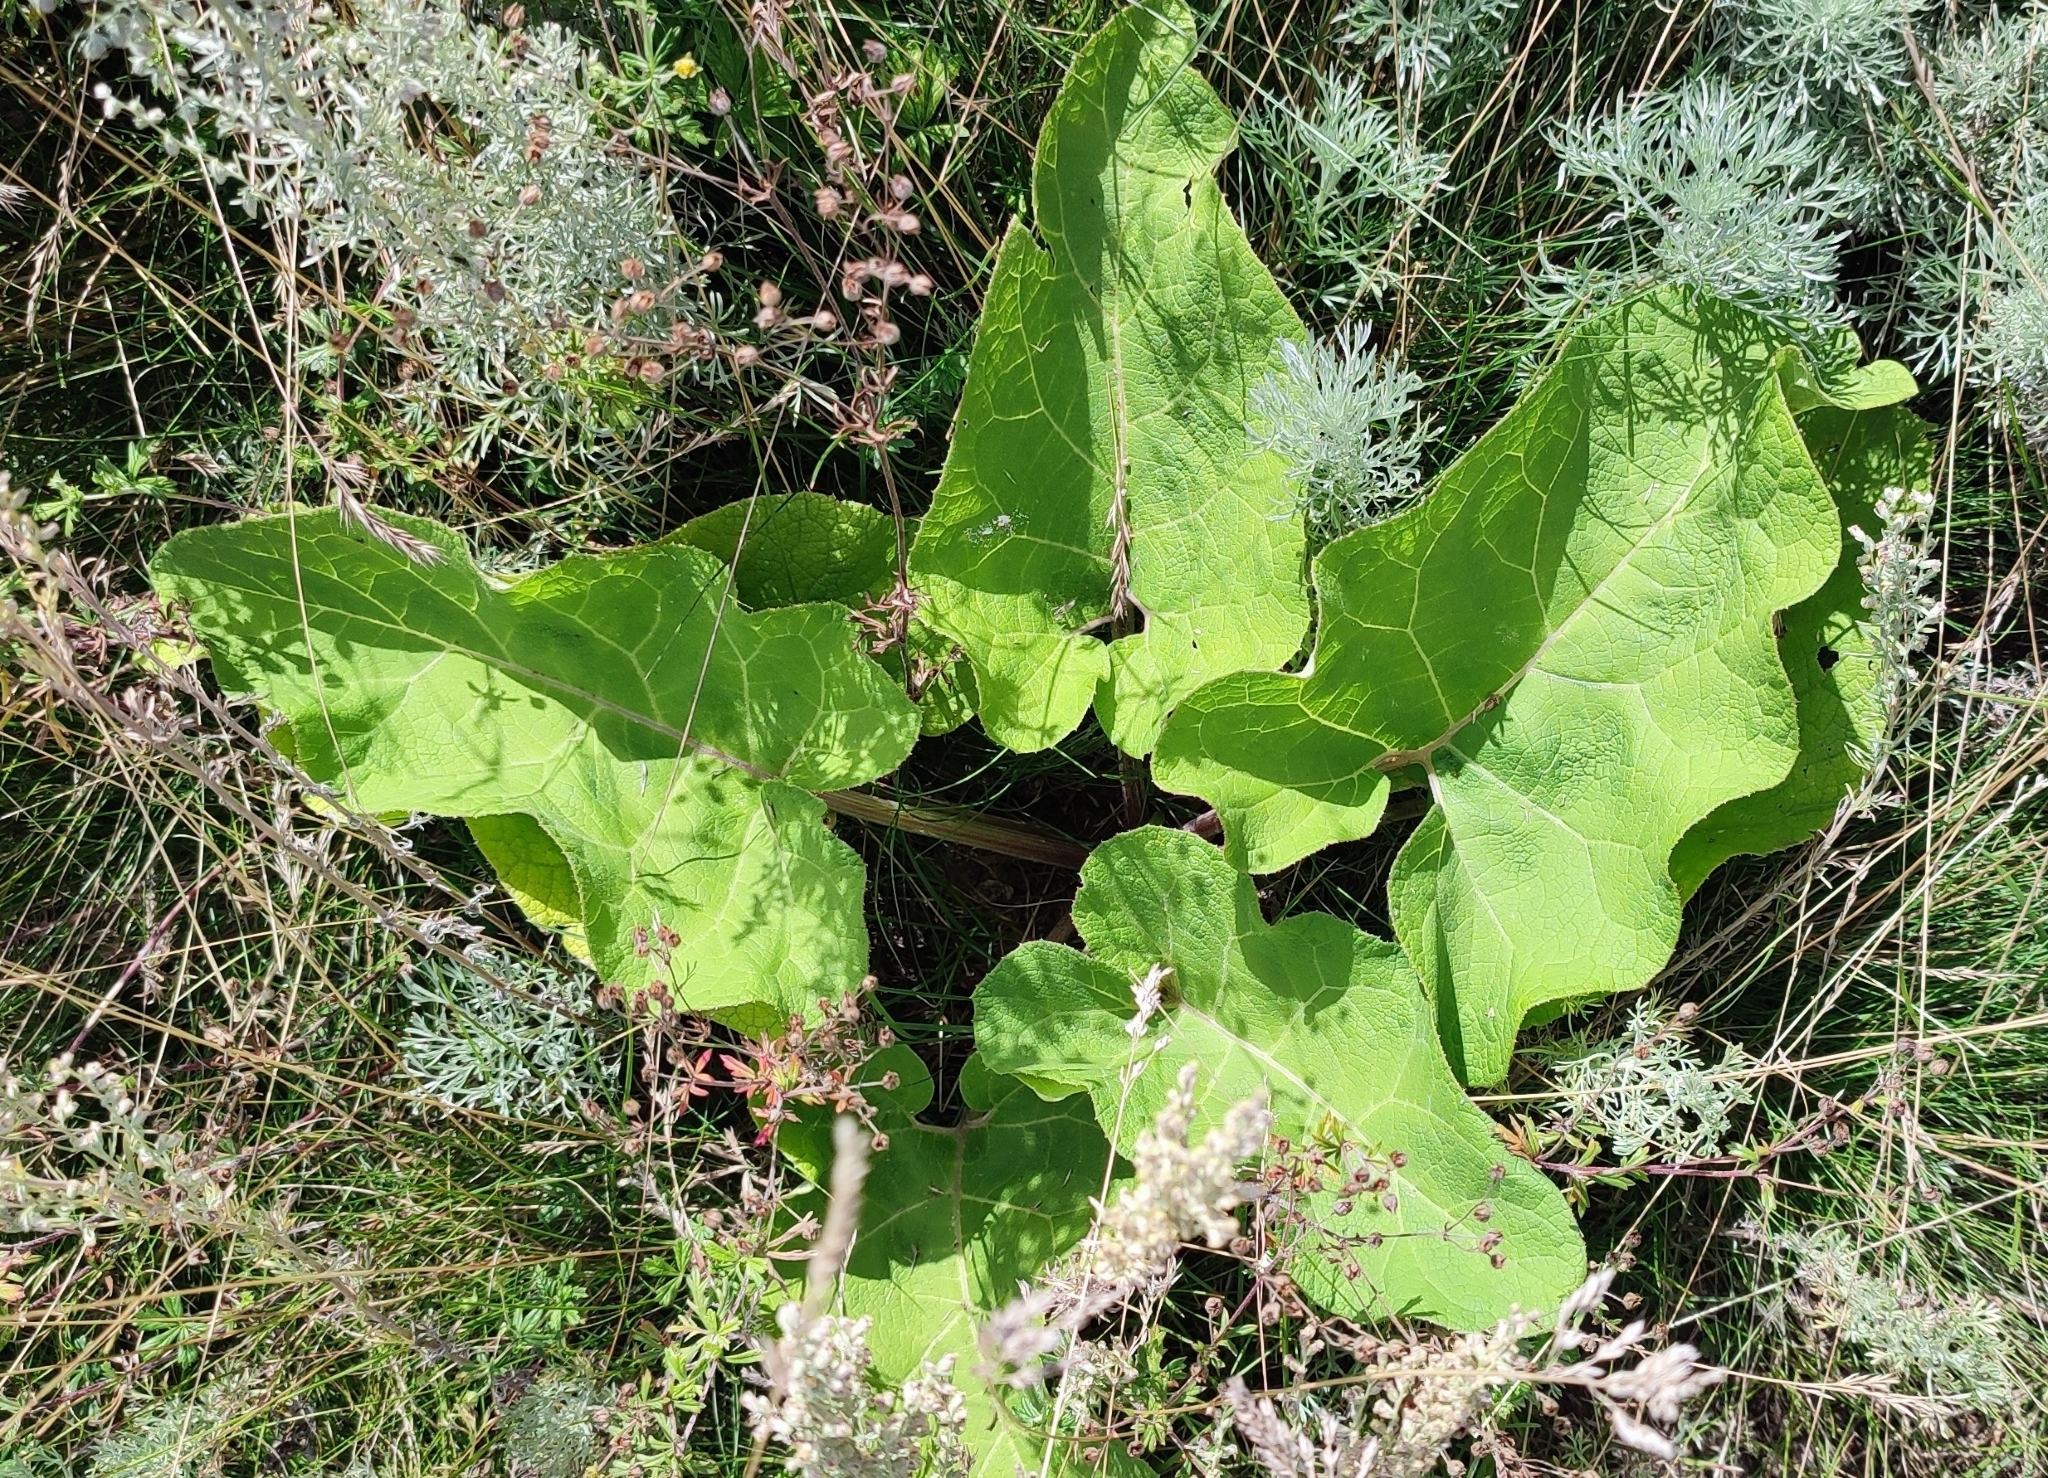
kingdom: Plantae
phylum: Tracheophyta
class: Magnoliopsida
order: Asterales
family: Asteraceae
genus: Arctium
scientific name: Arctium tomentosum
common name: Woolly burdock
